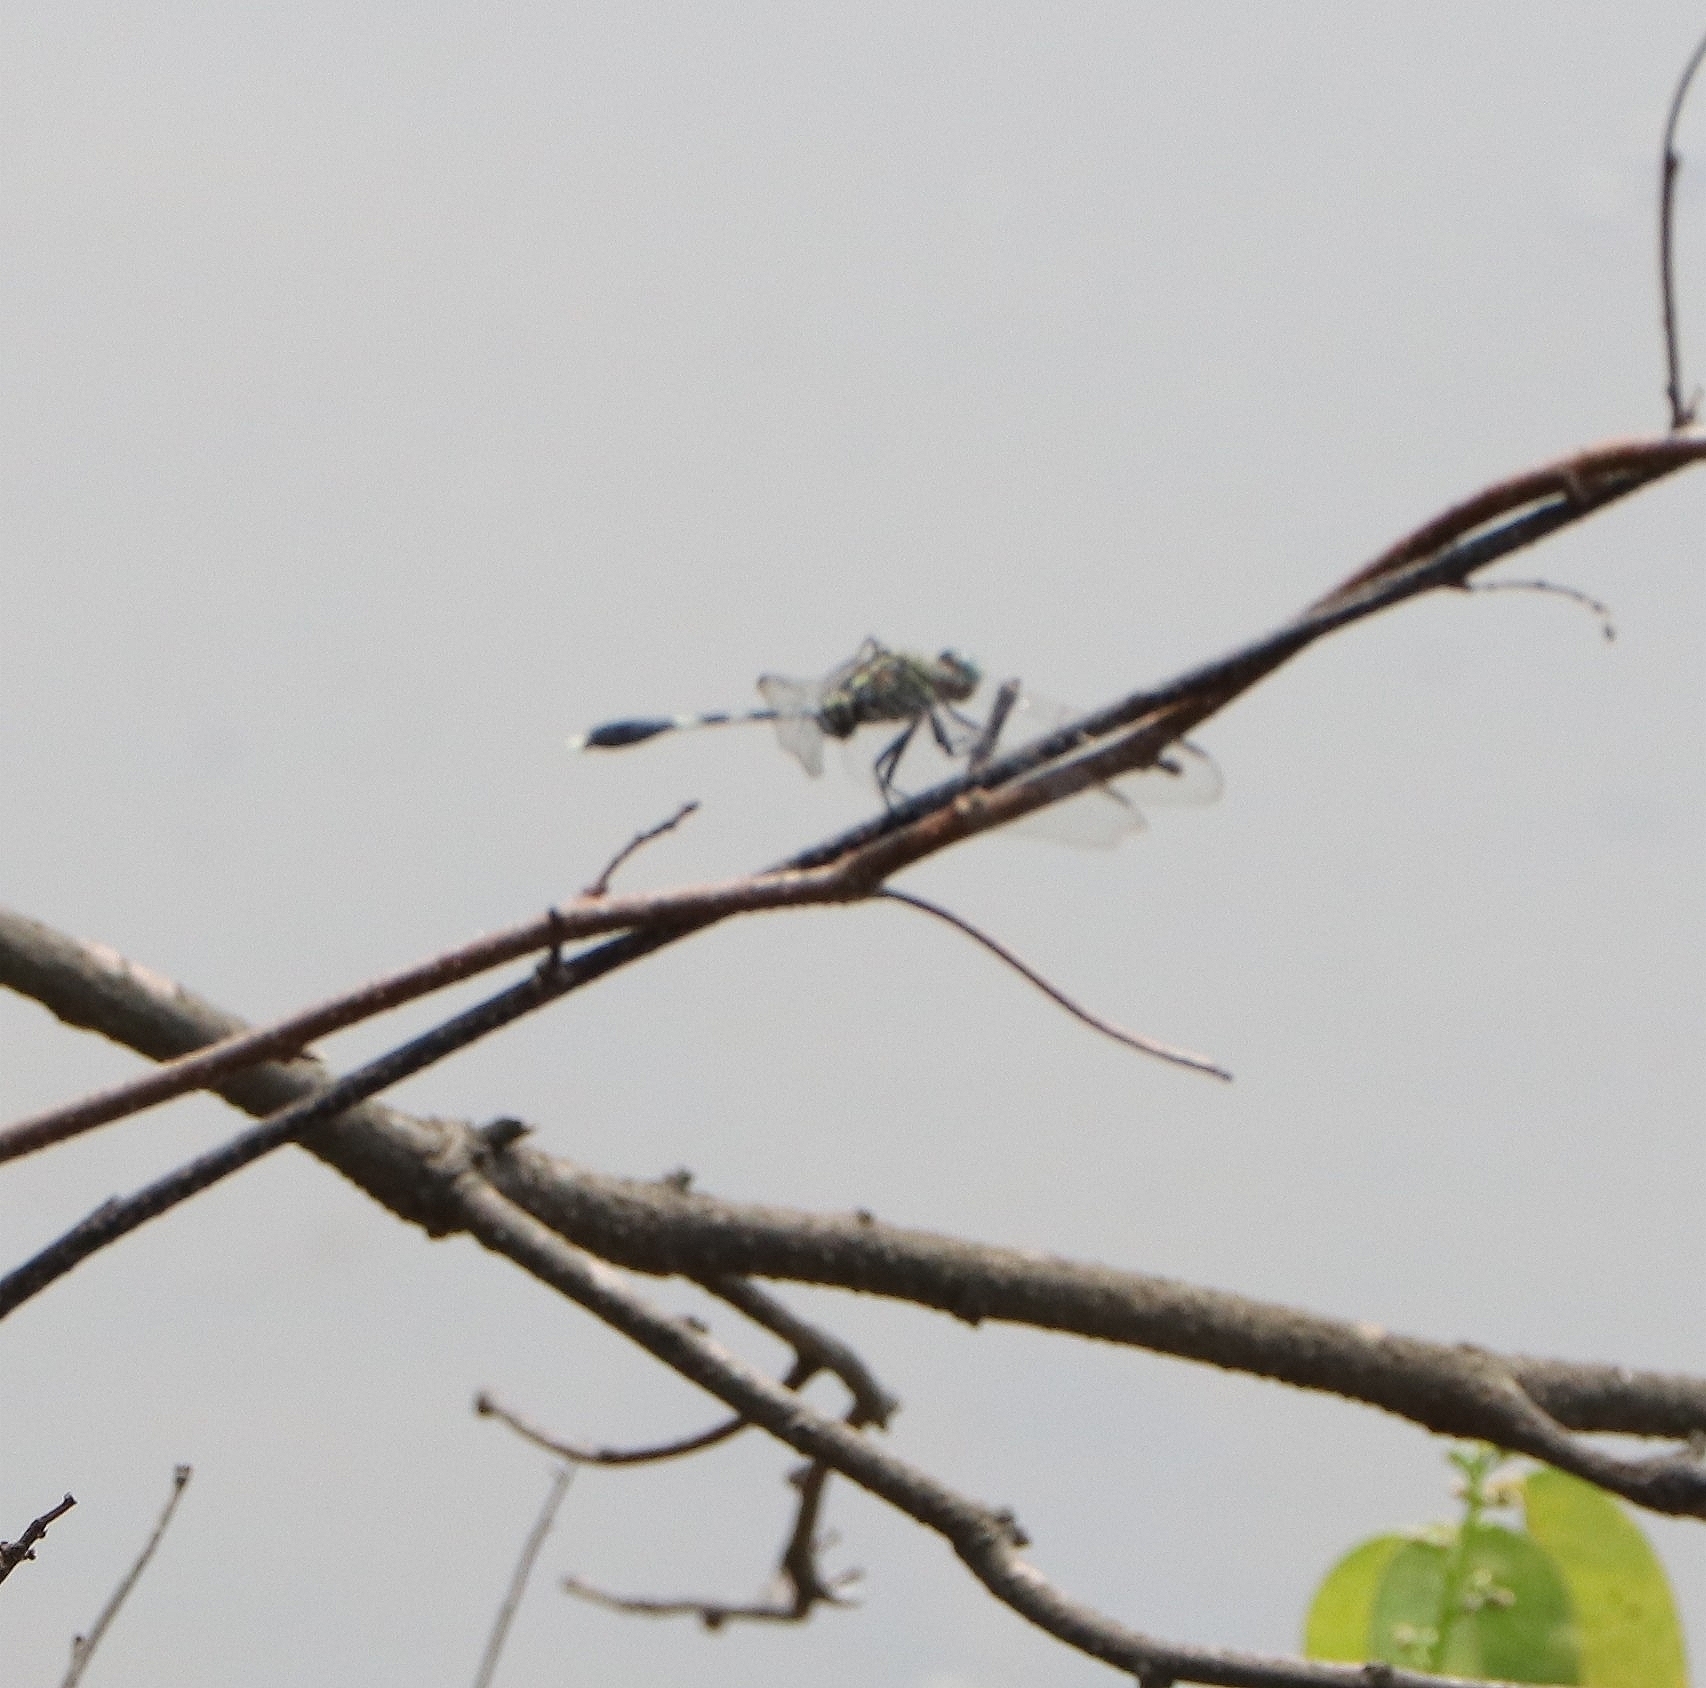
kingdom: Animalia
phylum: Arthropoda
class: Insecta
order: Odonata
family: Libellulidae
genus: Orthetrum
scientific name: Orthetrum sabina
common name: Slender skimmer
